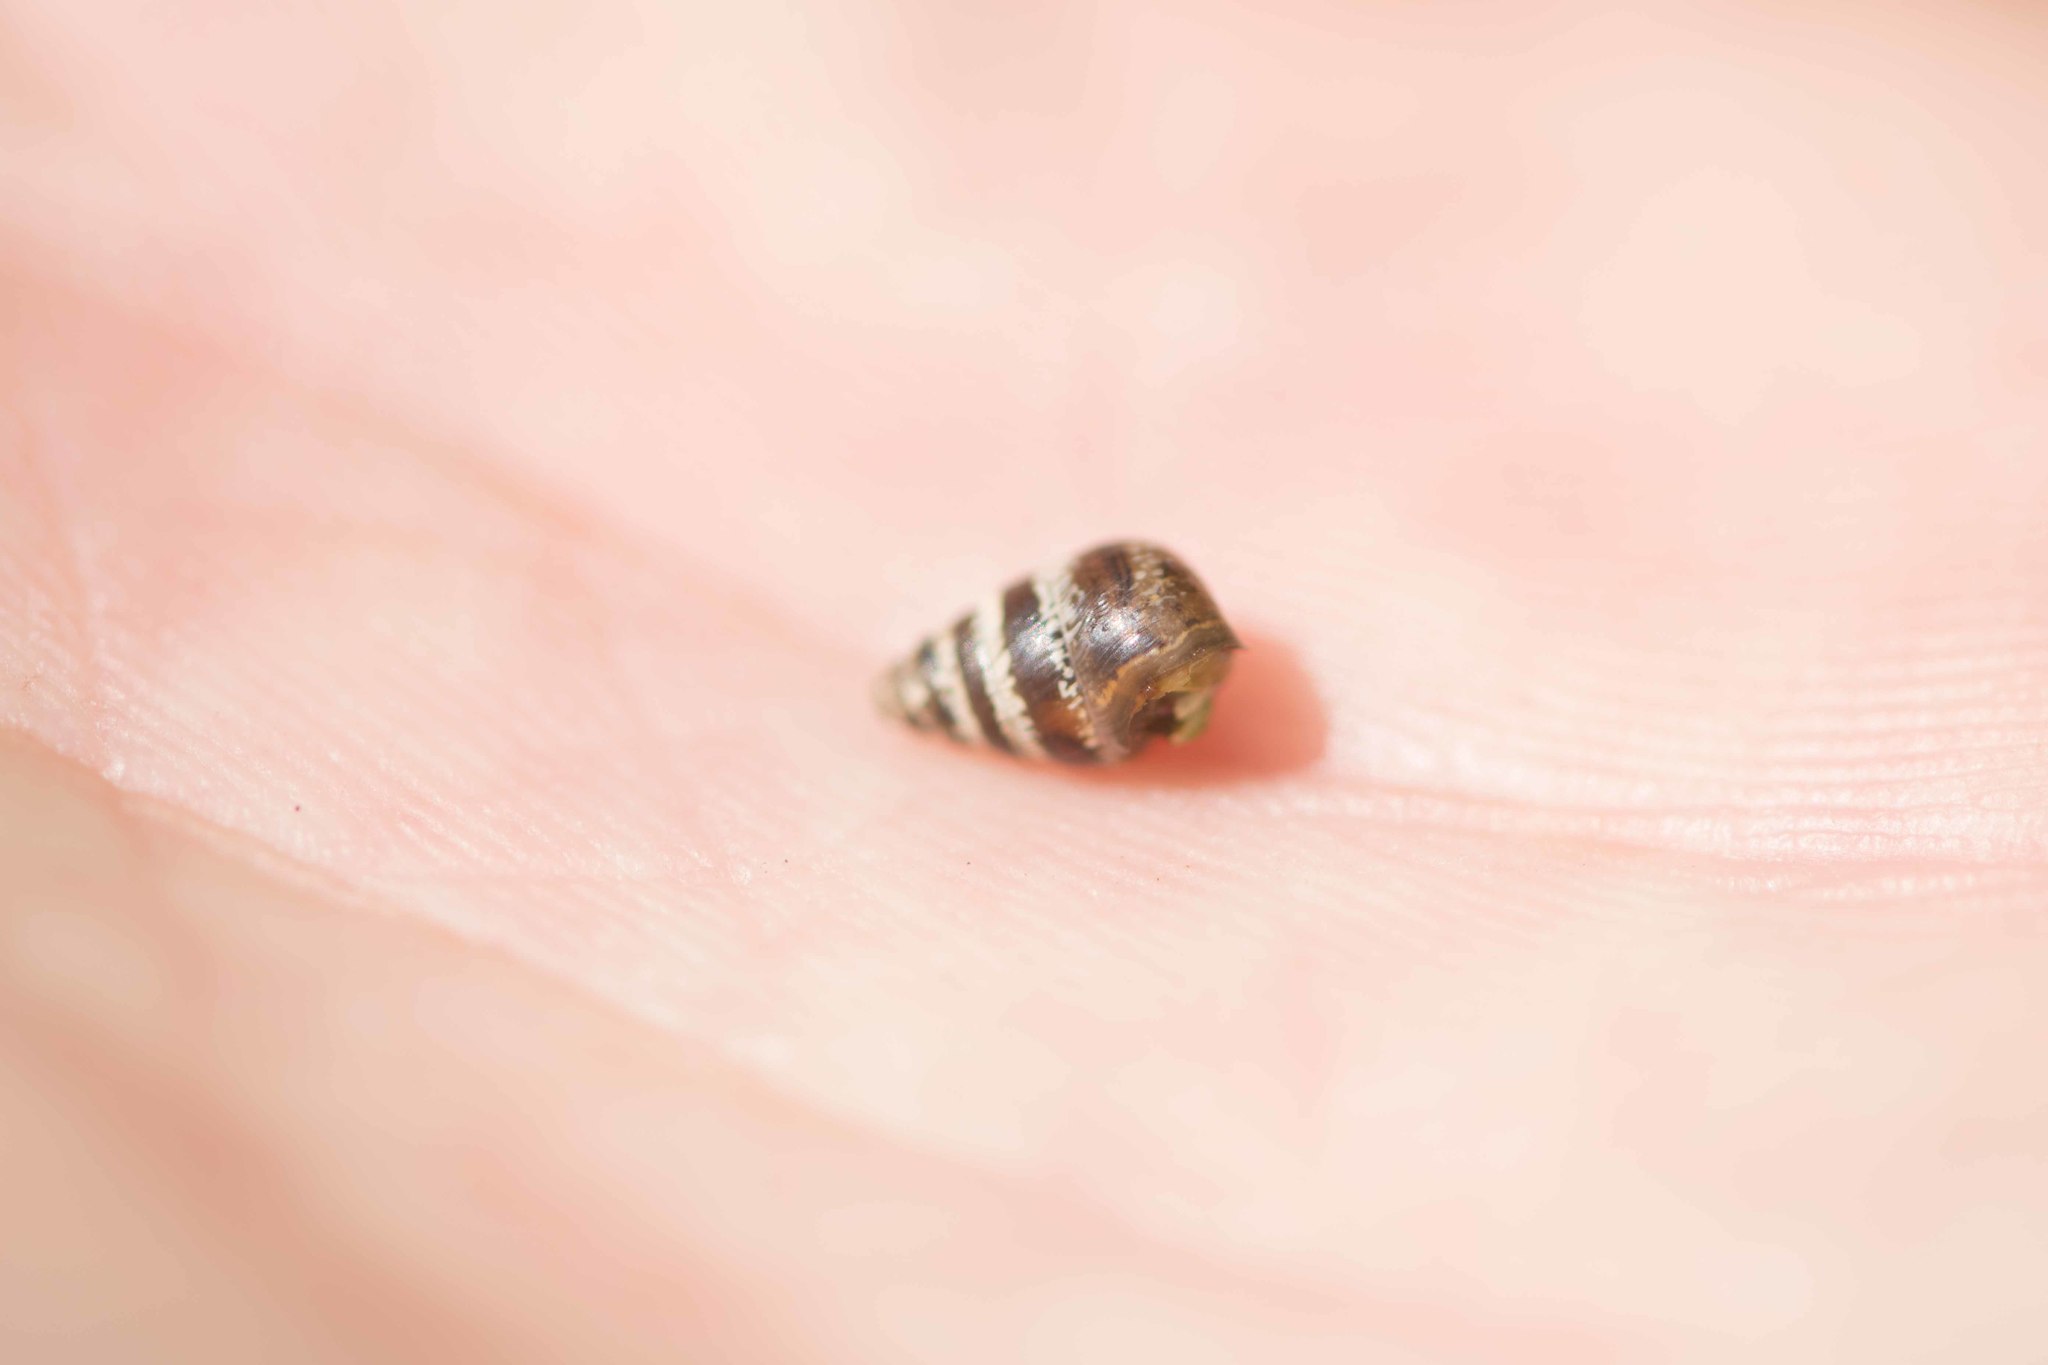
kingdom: Animalia
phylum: Mollusca
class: Gastropoda
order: Stylommatophora
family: Geomitridae
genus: Cochlicella
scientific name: Cochlicella barbara
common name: Potbellied helicellid
